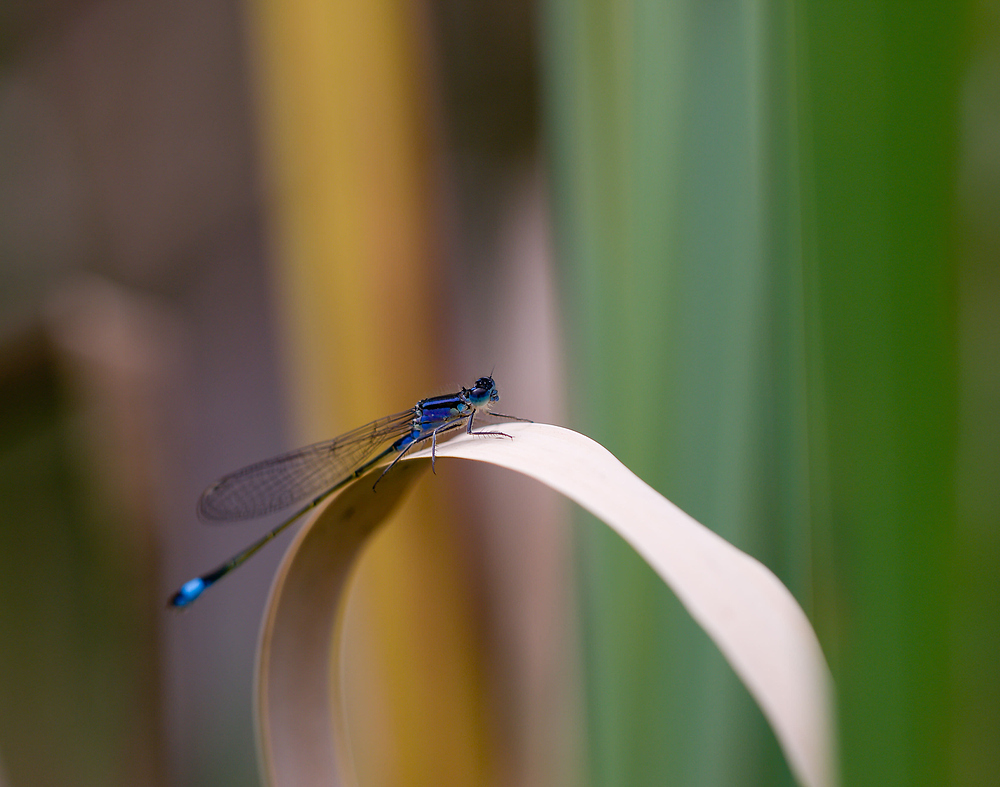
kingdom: Animalia
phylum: Arthropoda
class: Insecta
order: Odonata
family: Coenagrionidae
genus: Ischnura
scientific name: Ischnura elegans
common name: Blue-tailed damselfly
